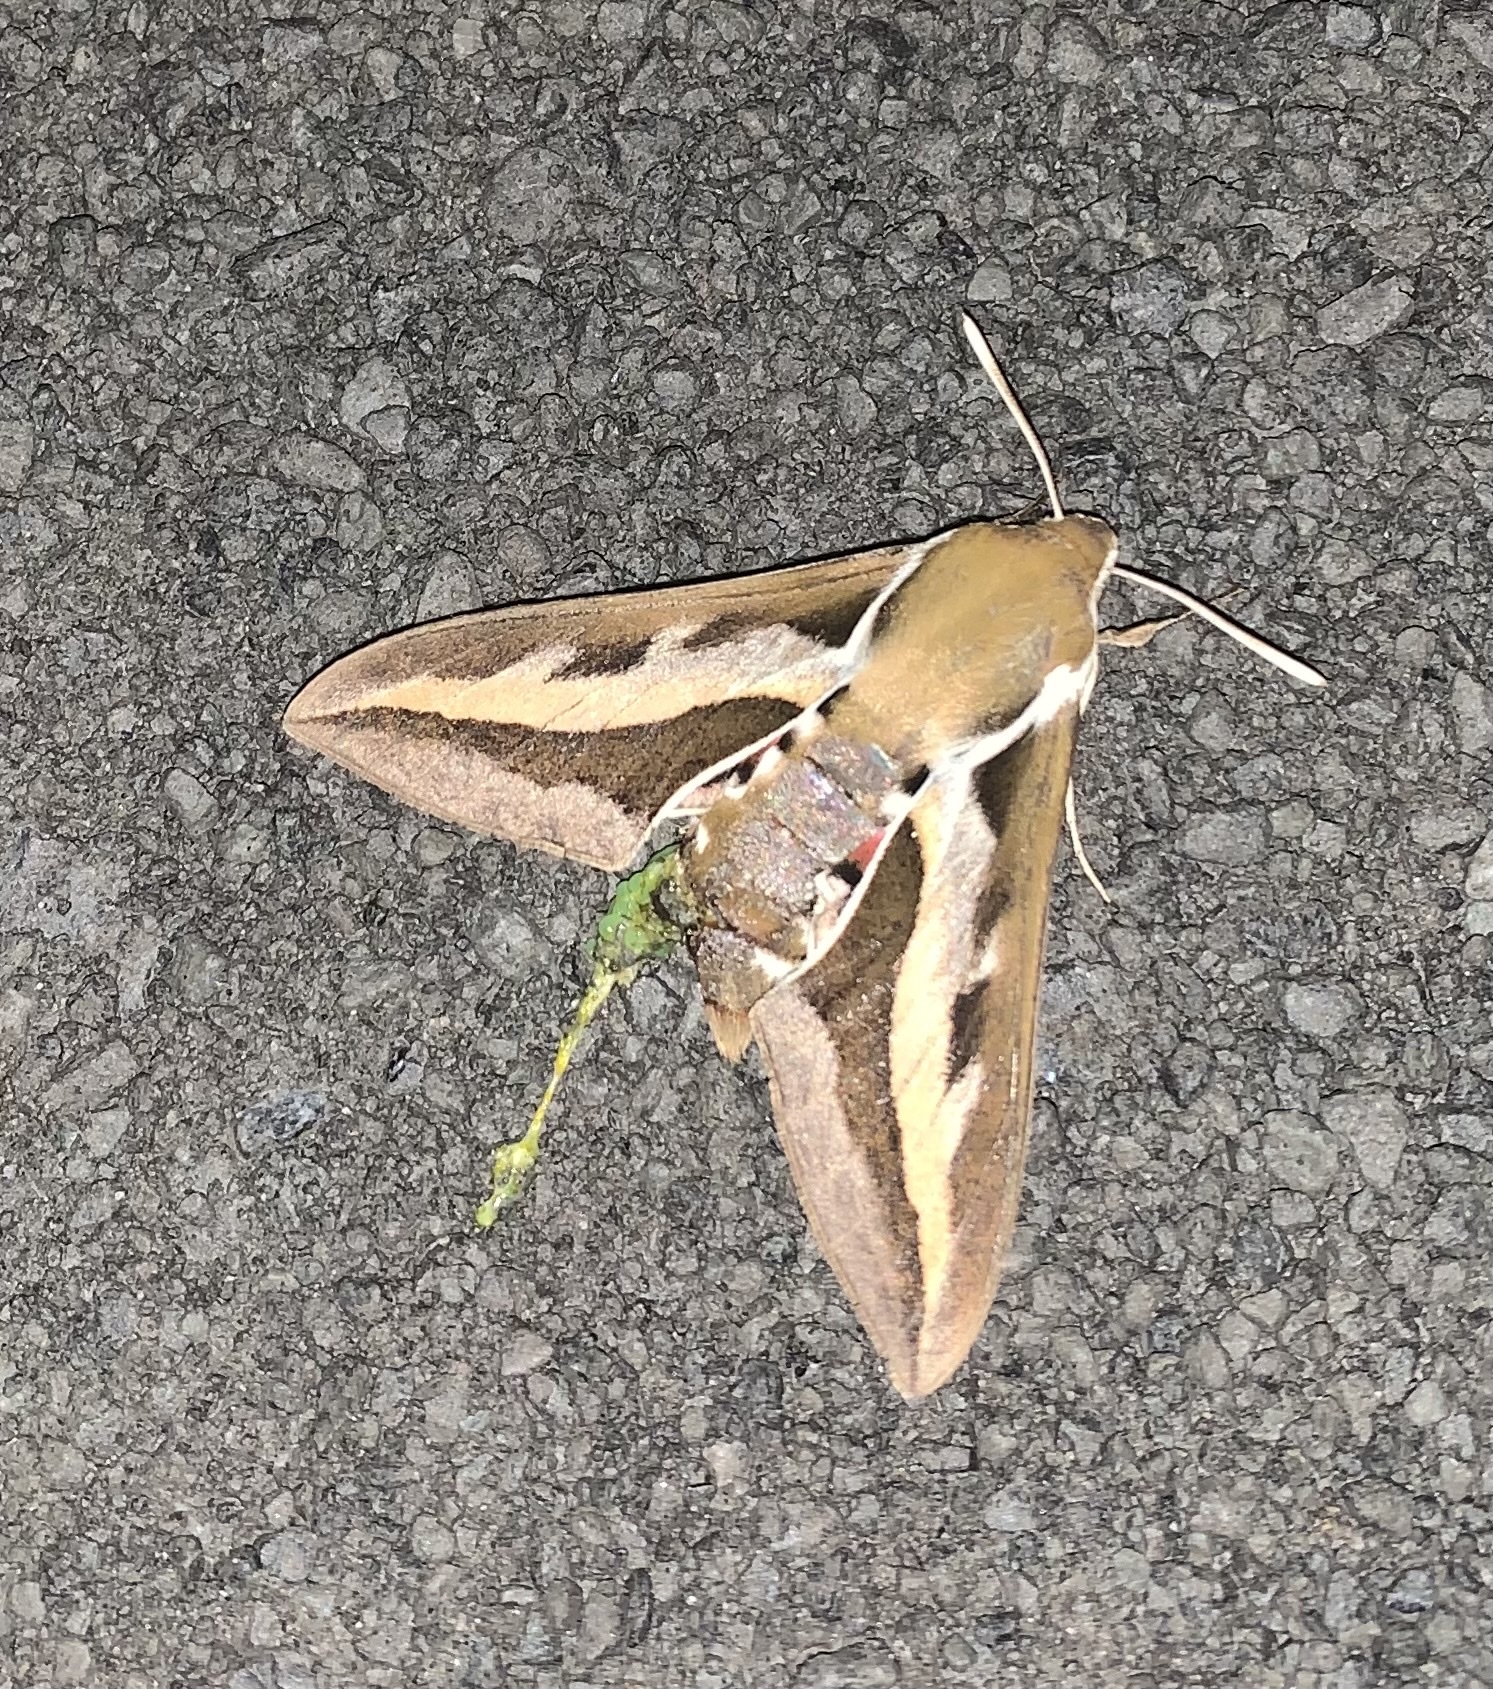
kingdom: Animalia
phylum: Arthropoda
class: Insecta
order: Lepidoptera
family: Sphingidae
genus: Hyles
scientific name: Hyles gallii
